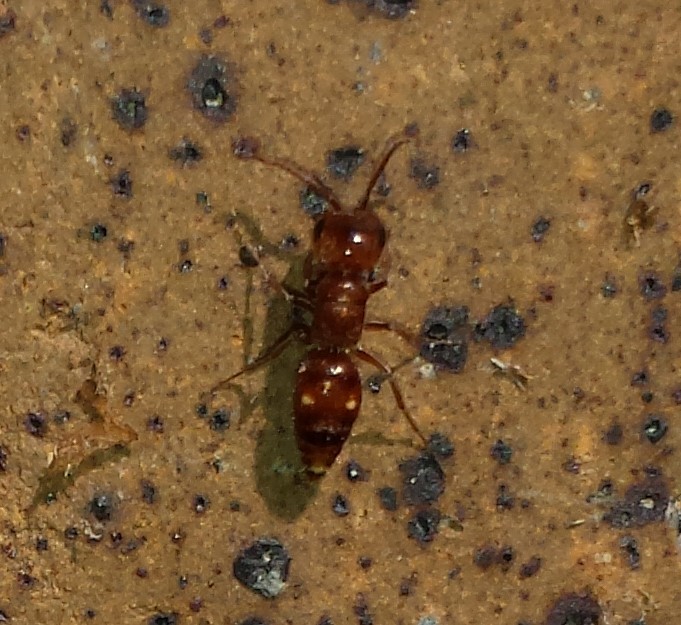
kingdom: Animalia
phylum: Arthropoda
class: Insecta
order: Hymenoptera
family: Myrmosidae
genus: Myrmosula
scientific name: Myrmosula
